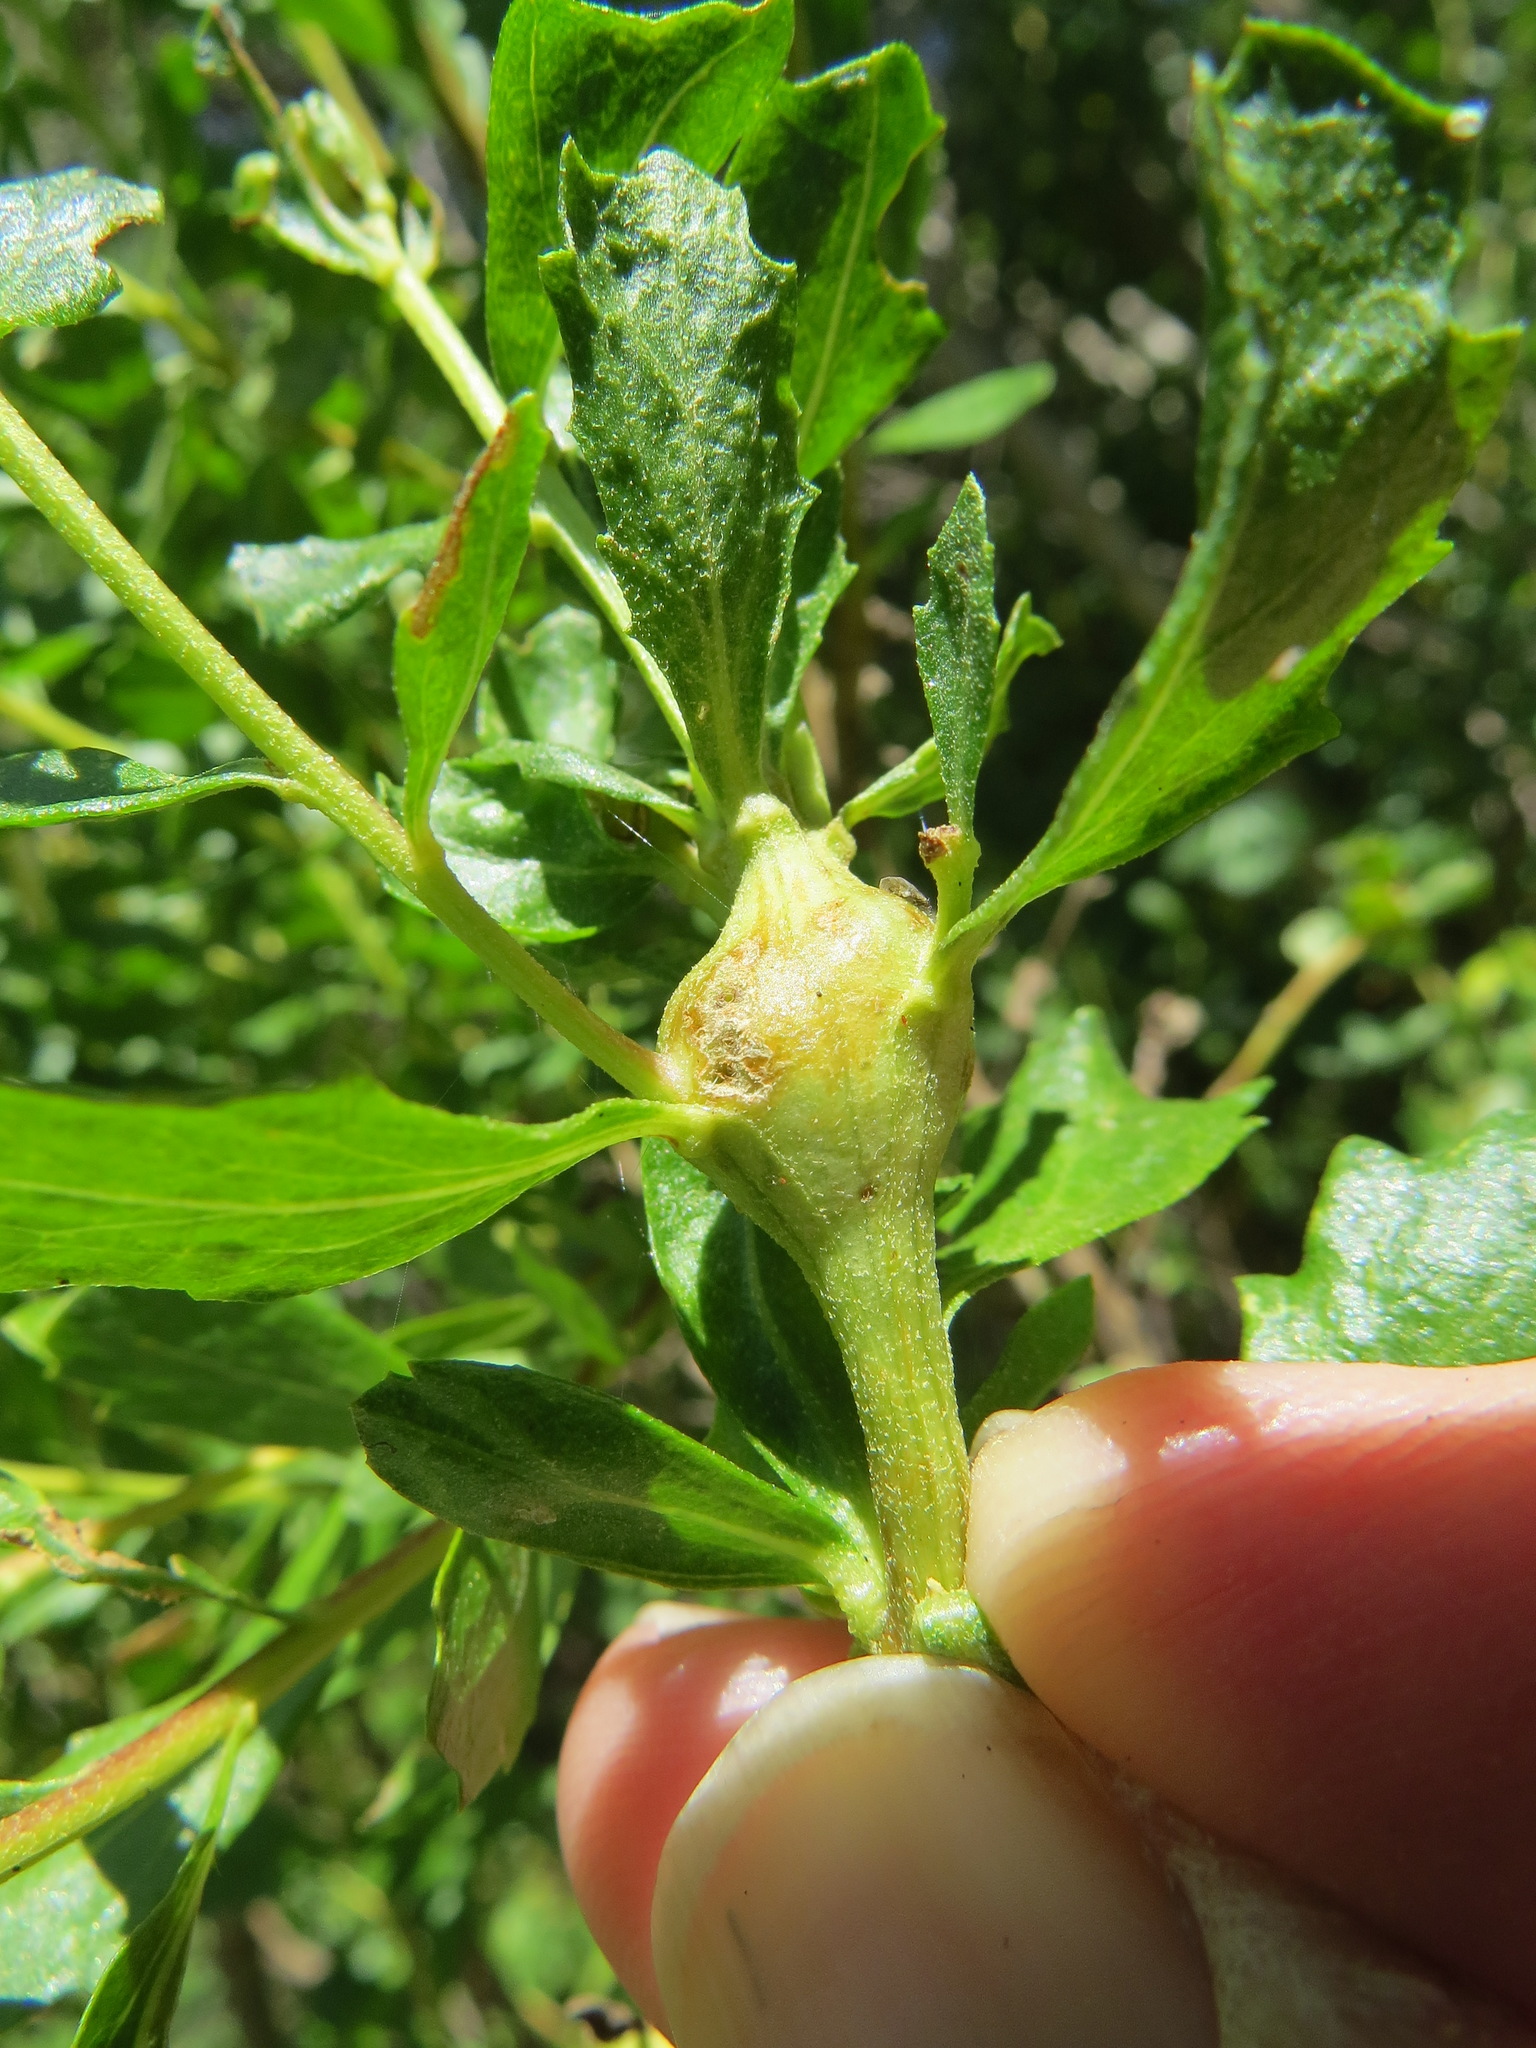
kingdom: Animalia
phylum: Arthropoda
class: Insecta
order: Lepidoptera
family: Gelechiidae
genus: Gnorimoschema
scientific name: Gnorimoschema baccharisella
